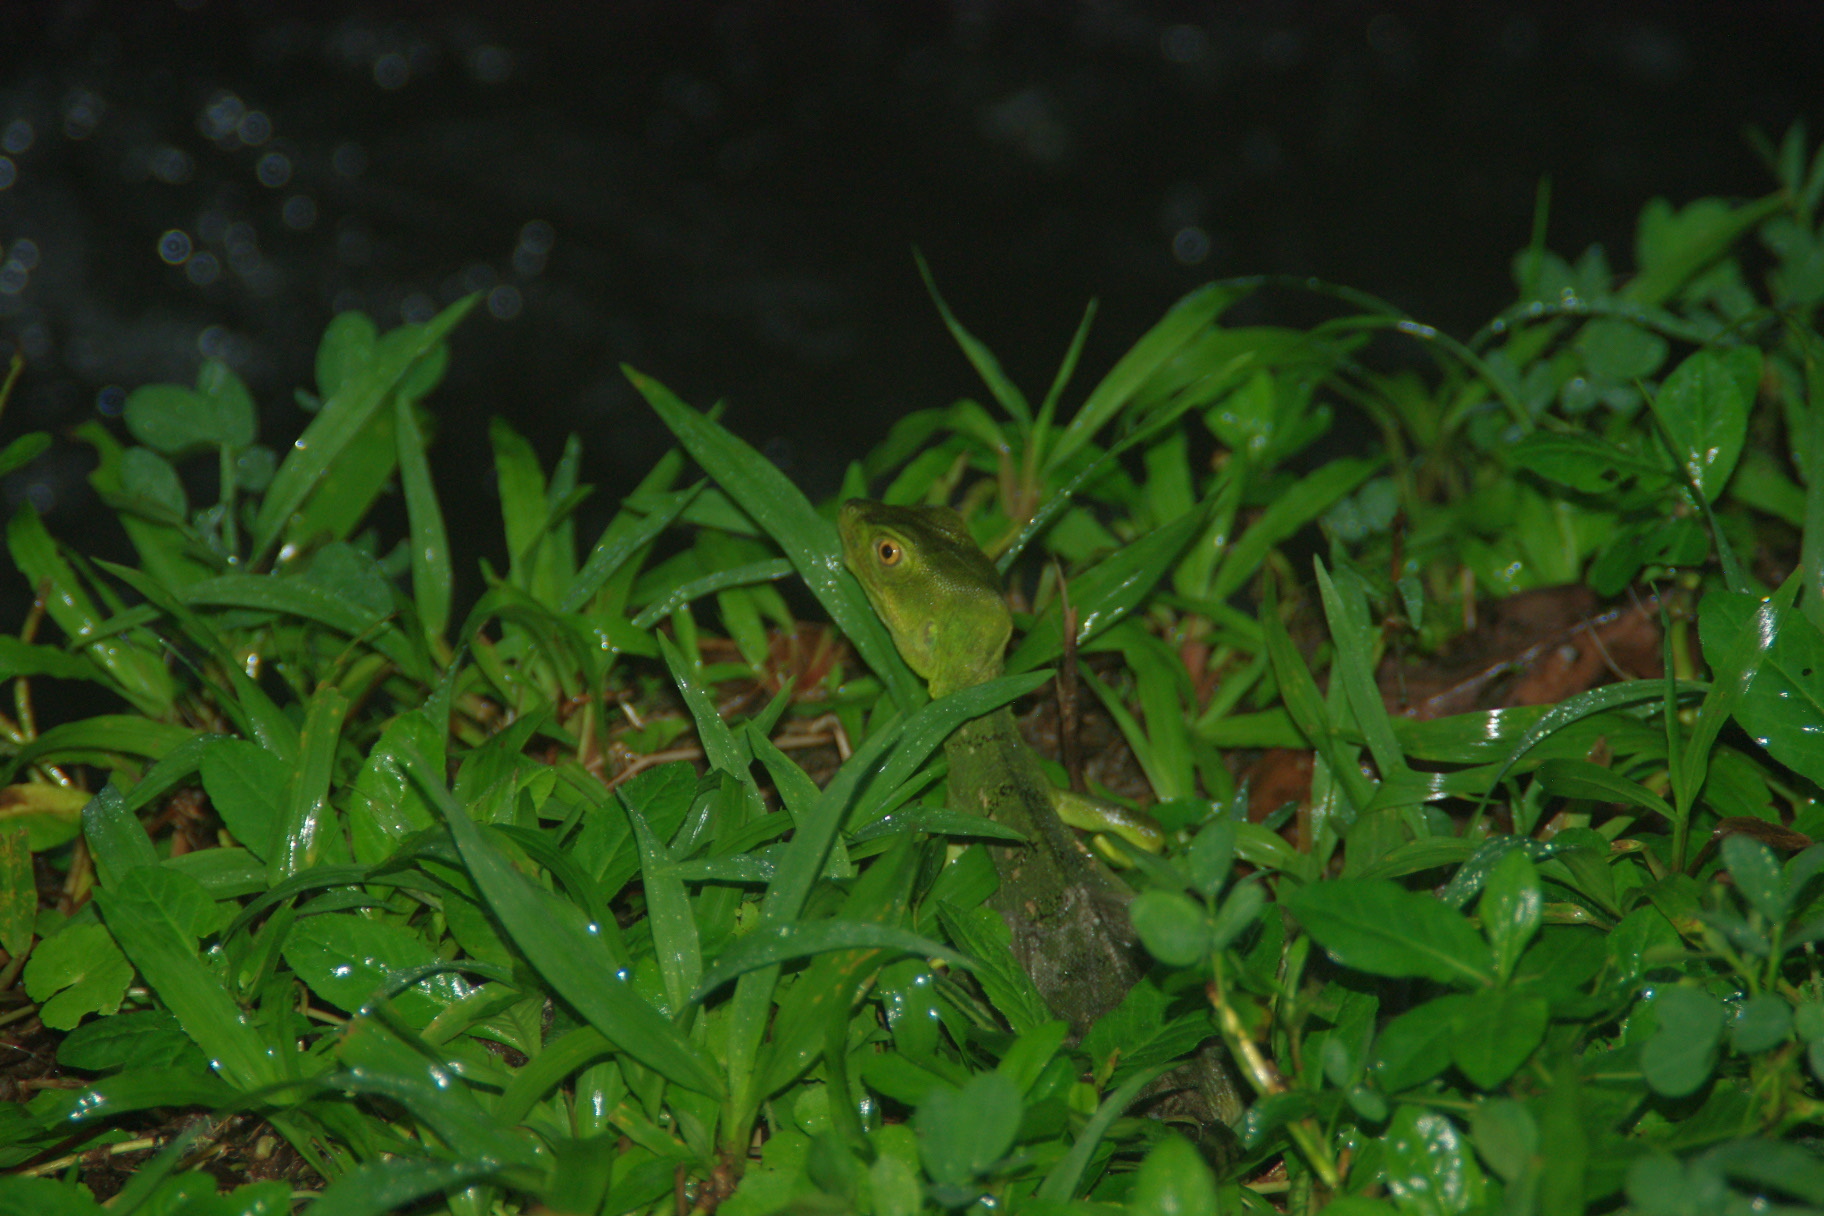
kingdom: Animalia
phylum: Chordata
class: Squamata
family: Corytophanidae
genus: Basiliscus
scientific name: Basiliscus plumifrons
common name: Green basilisk
